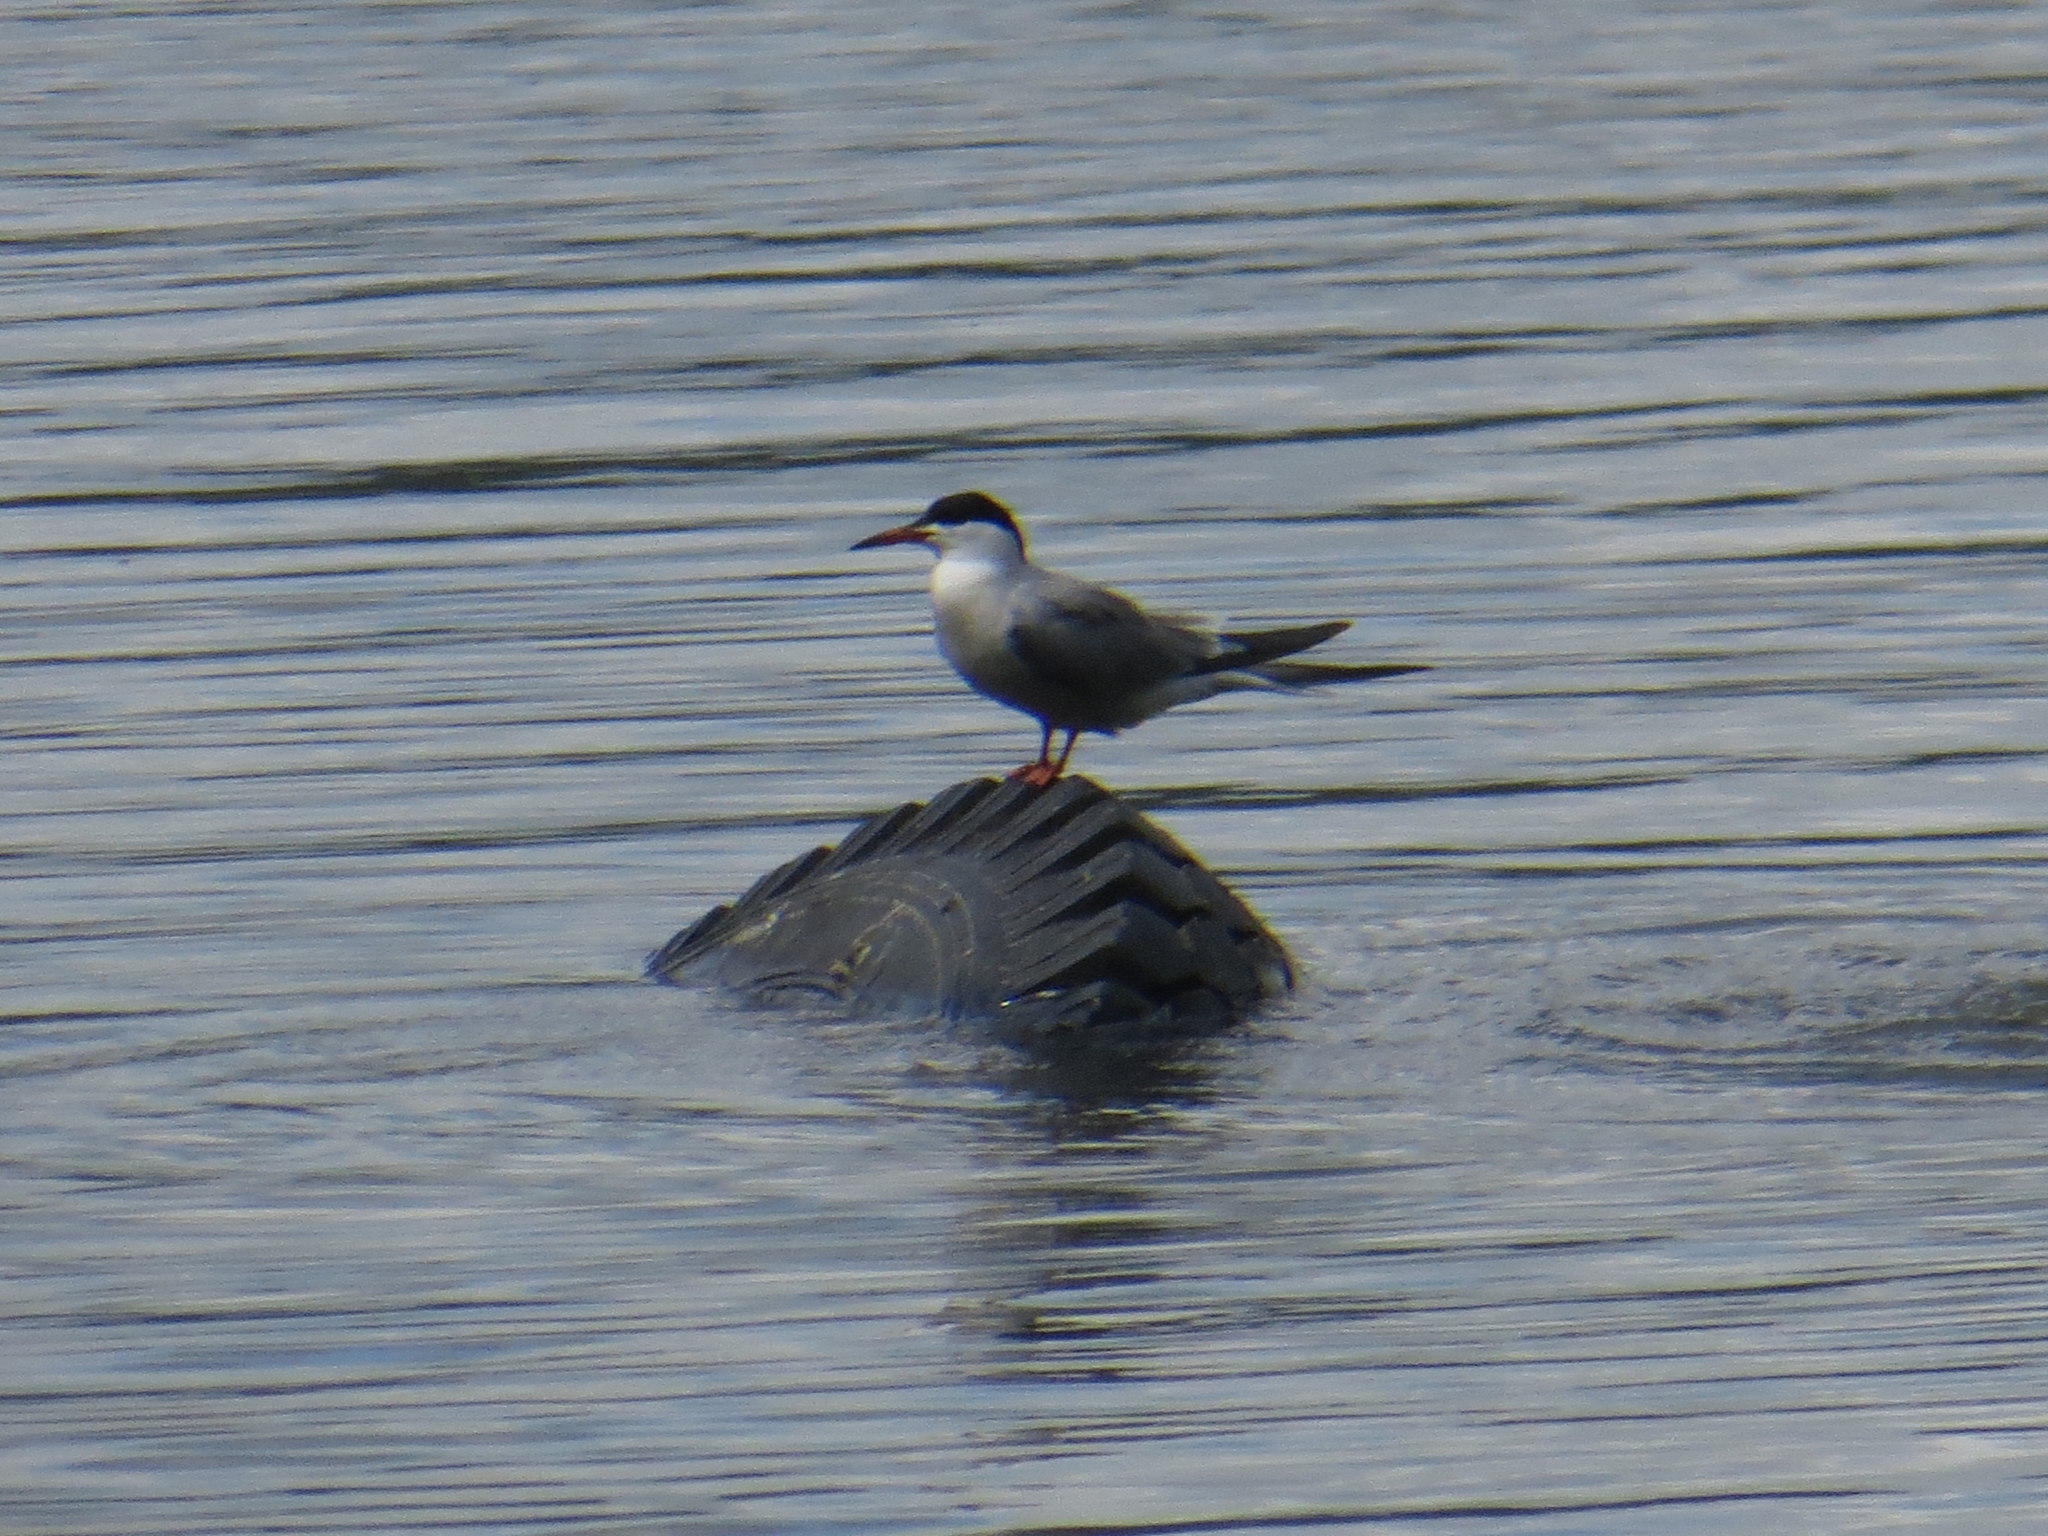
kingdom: Animalia
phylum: Chordata
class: Aves
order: Charadriiformes
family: Laridae
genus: Sterna
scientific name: Sterna hirundo
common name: Common tern
